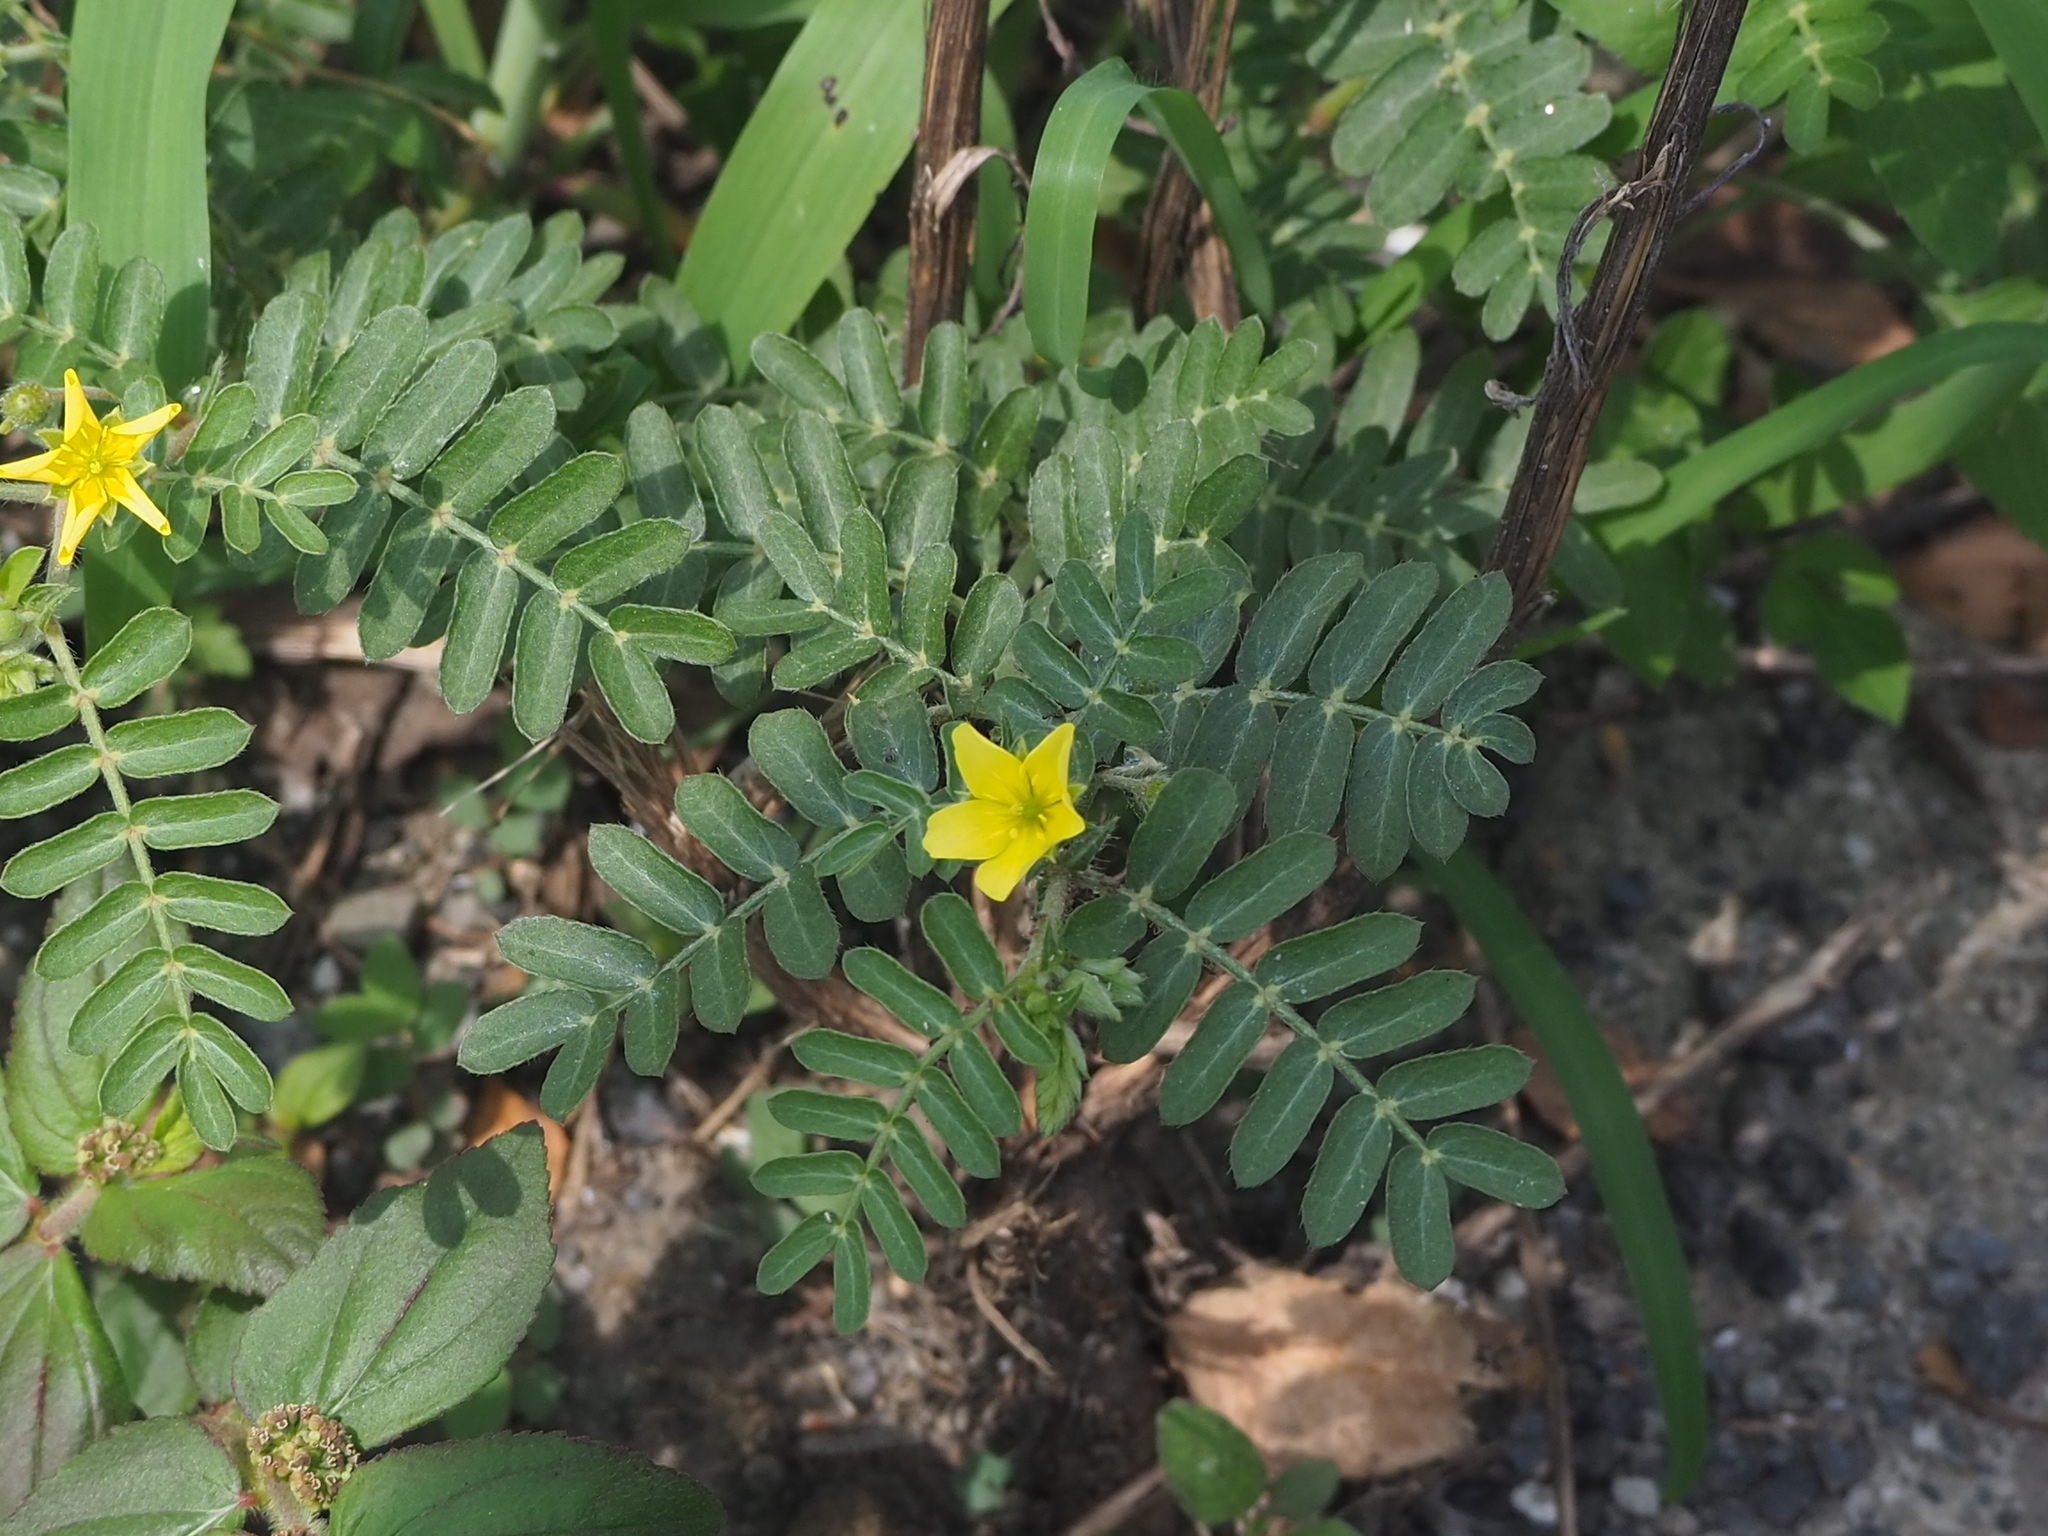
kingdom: Plantae
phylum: Tracheophyta
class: Magnoliopsida
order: Zygophyllales
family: Zygophyllaceae
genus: Tribulus
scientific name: Tribulus cistoides
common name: Jamaican feverplant
